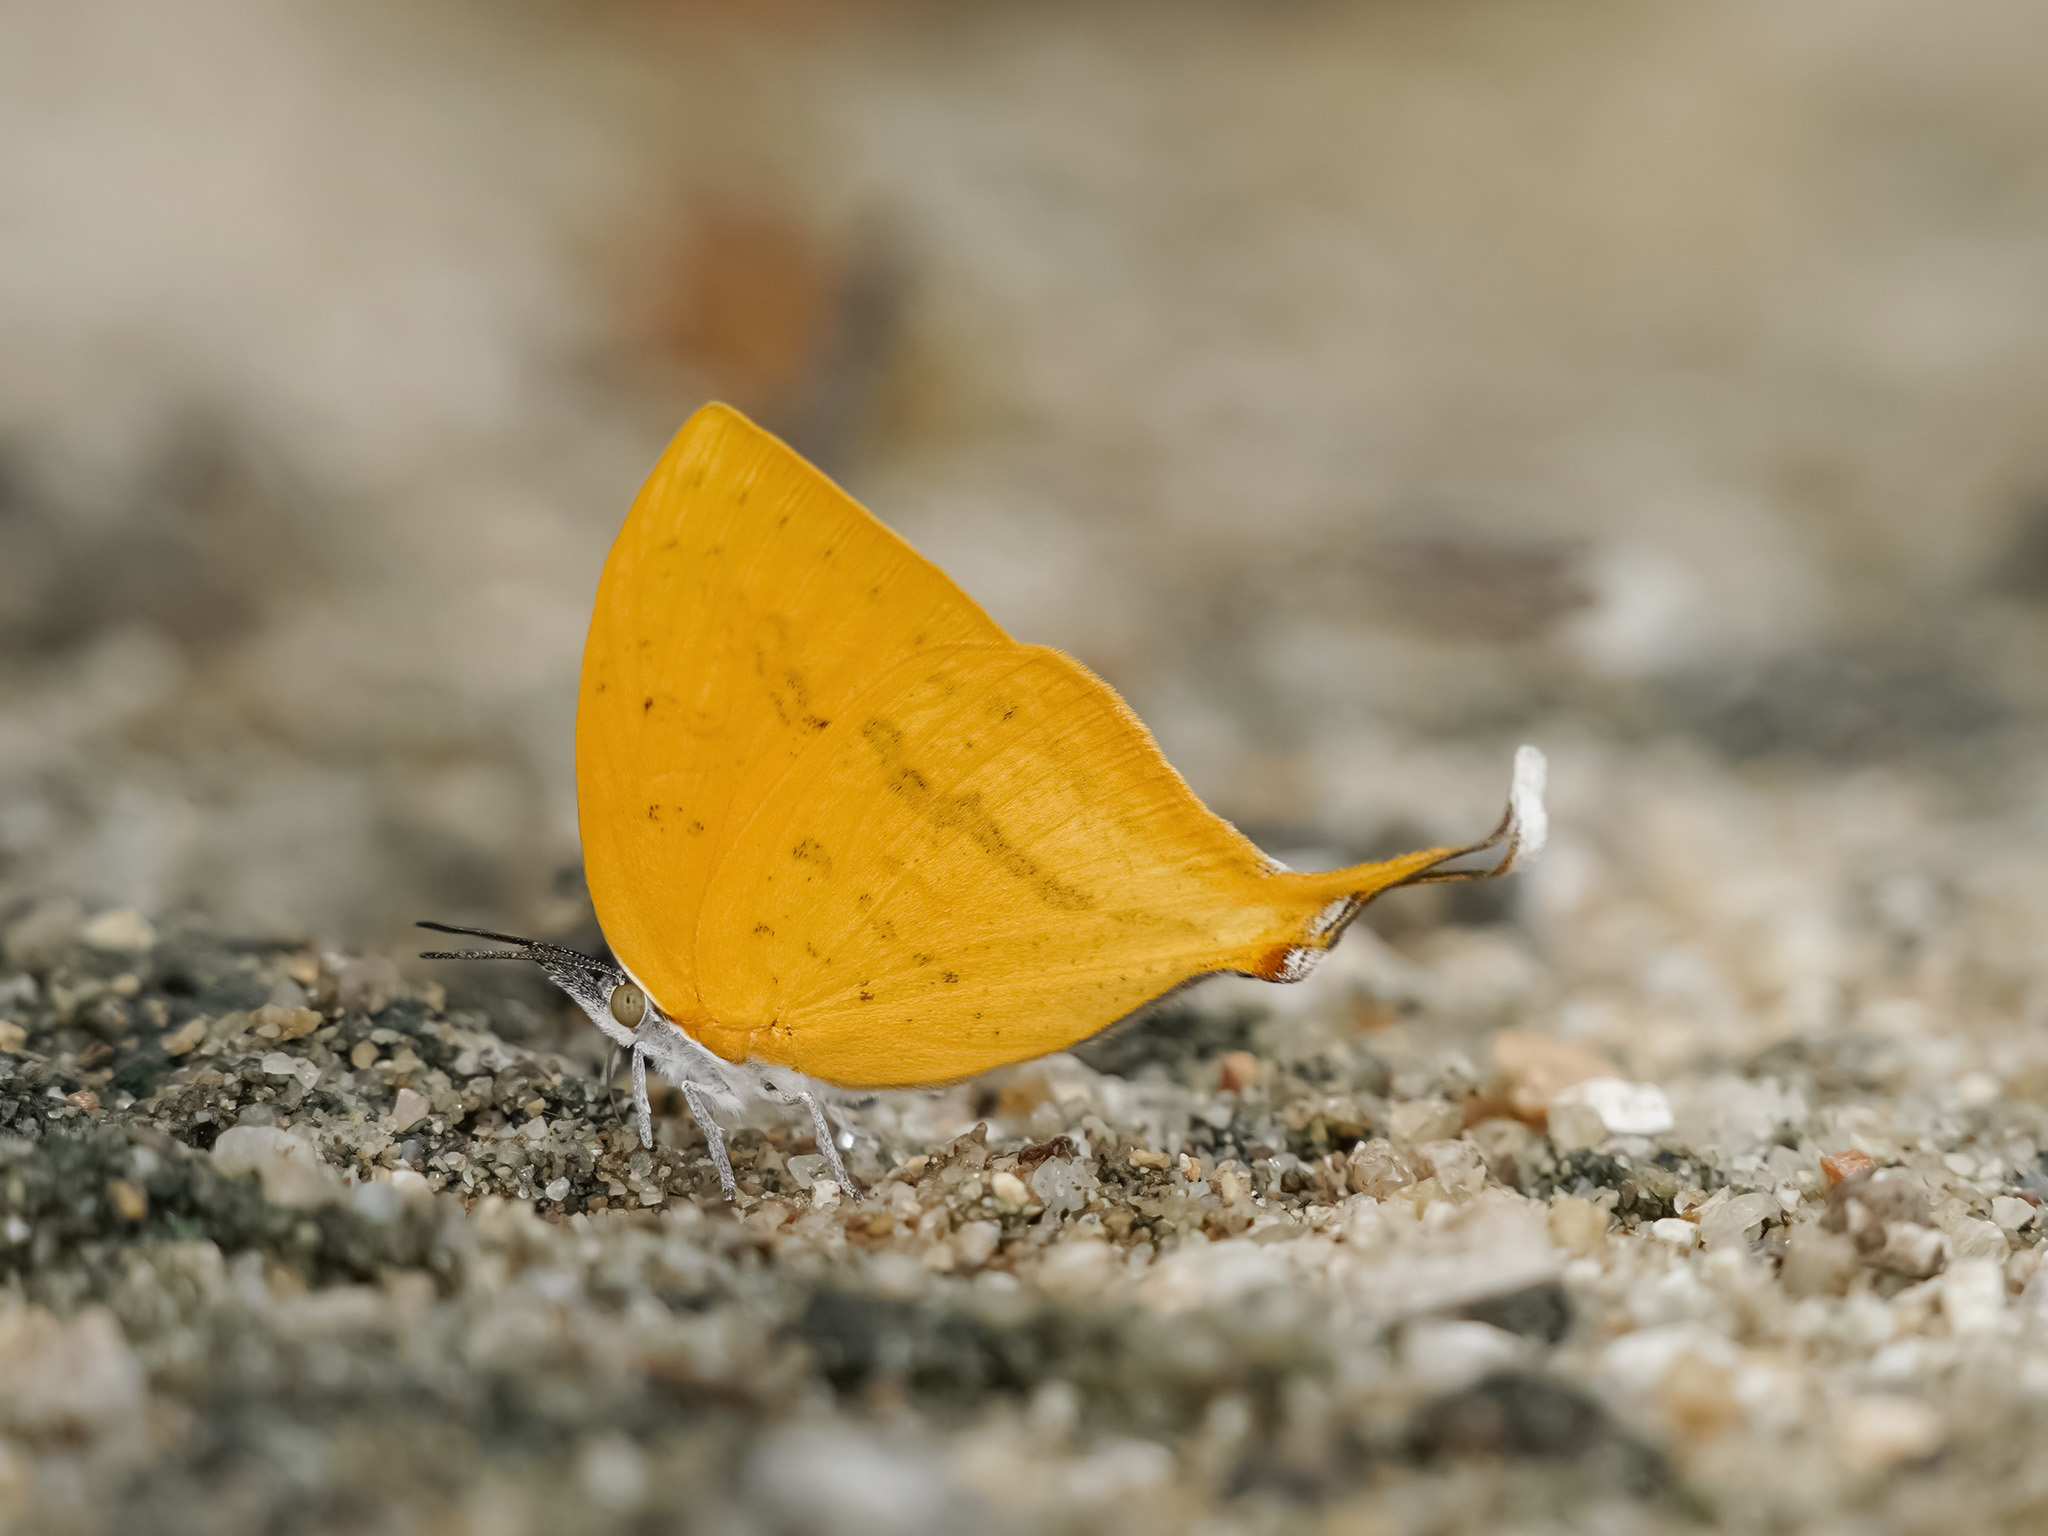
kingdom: Animalia
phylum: Arthropoda
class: Insecta
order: Lepidoptera
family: Lycaenidae
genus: Loxura
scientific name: Loxura atymnus
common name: Common yamfly
